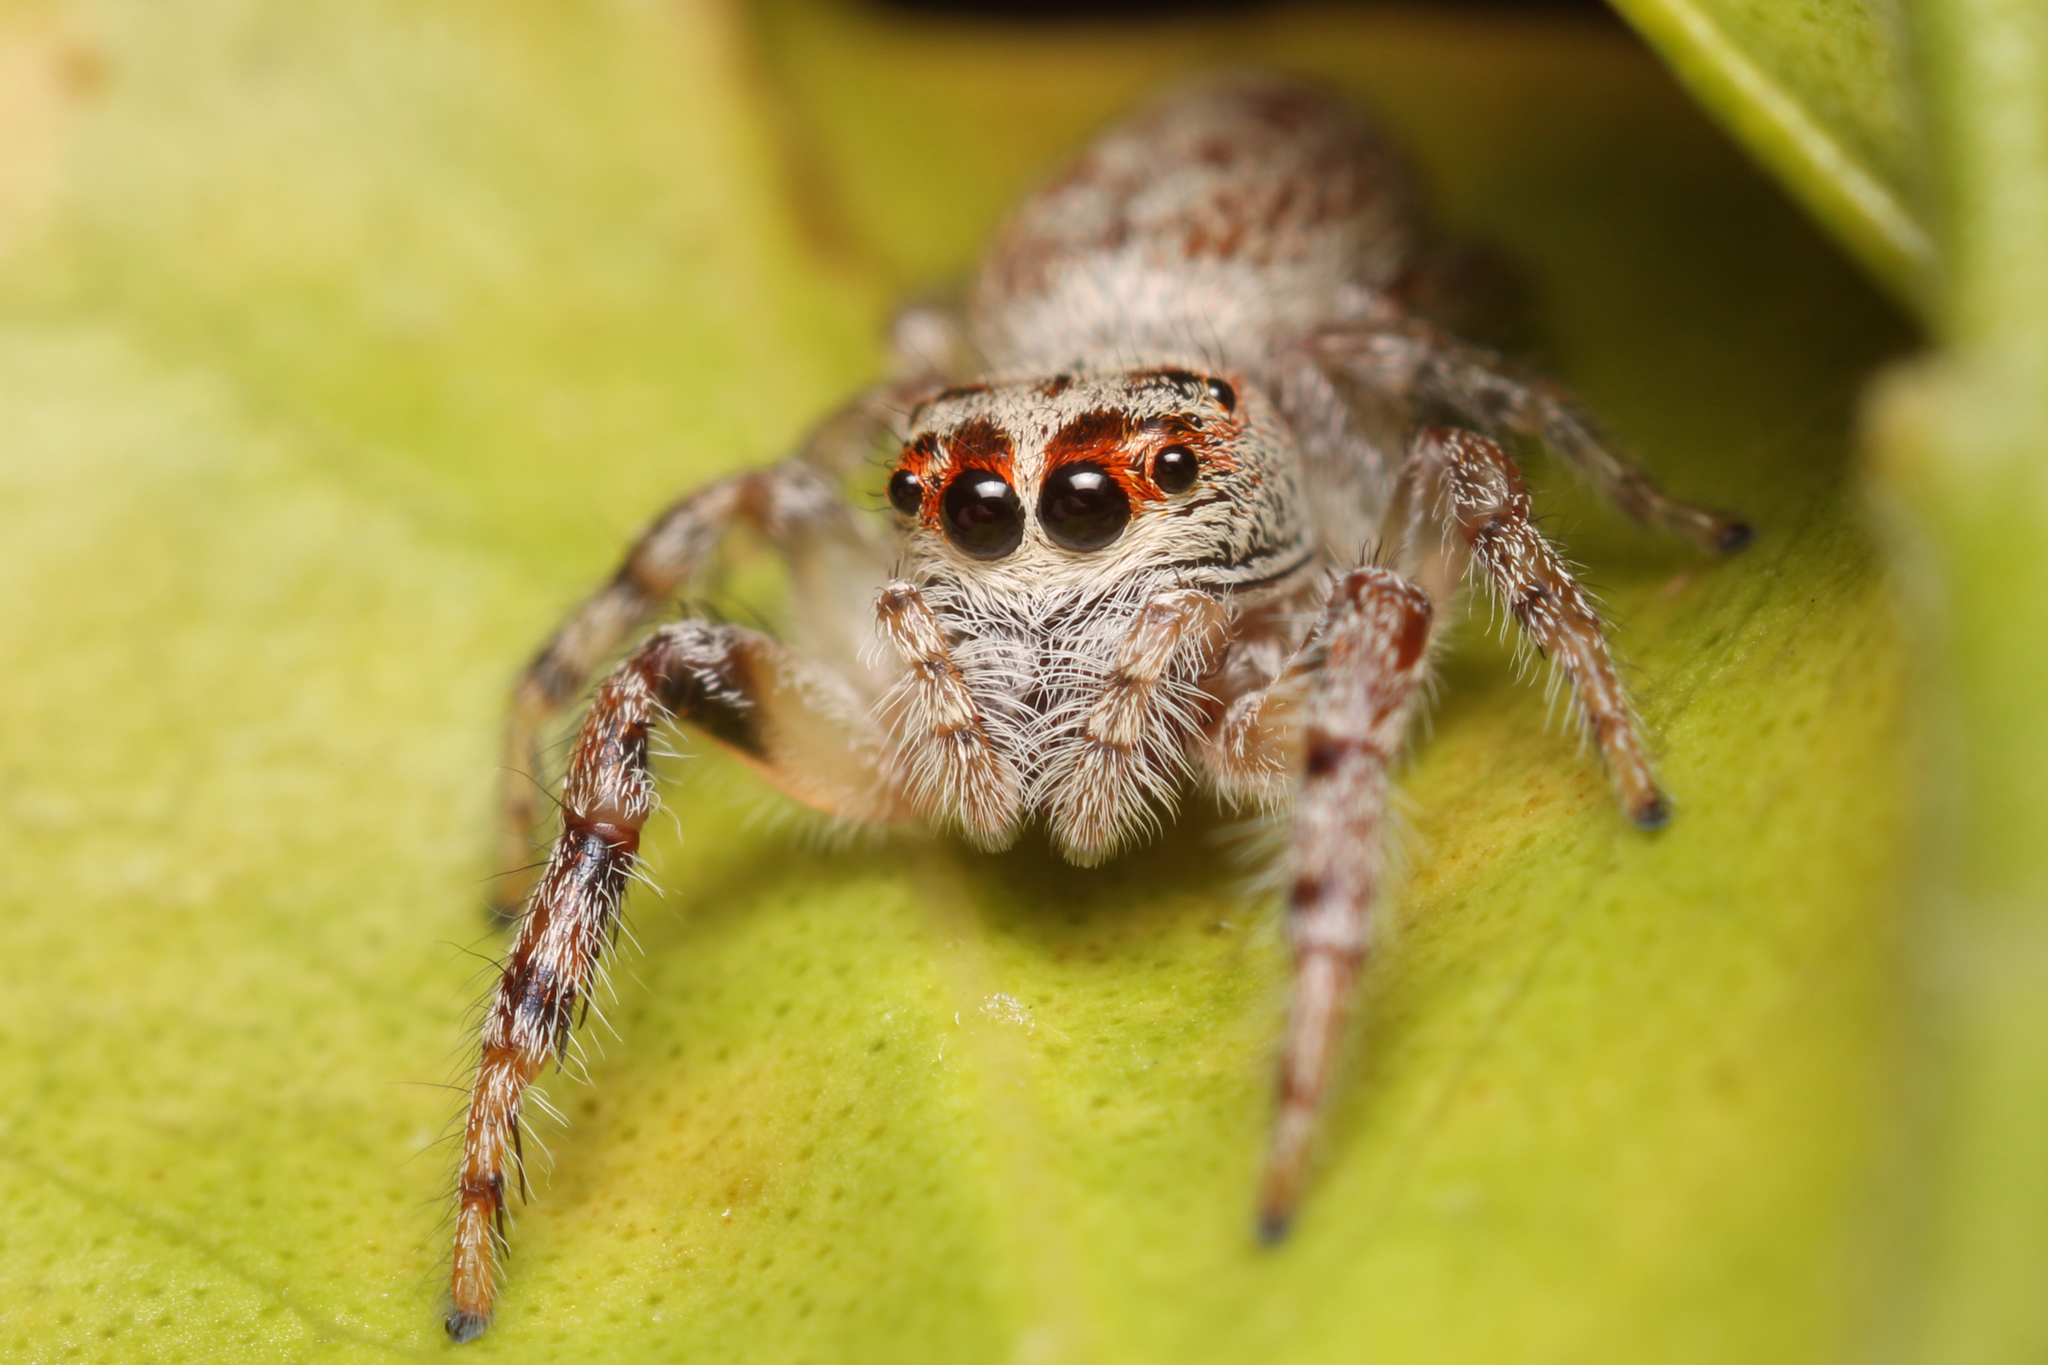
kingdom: Animalia
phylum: Arthropoda
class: Arachnida
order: Araneae
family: Salticidae
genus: Opisthoncus
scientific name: Opisthoncus polyphemus
